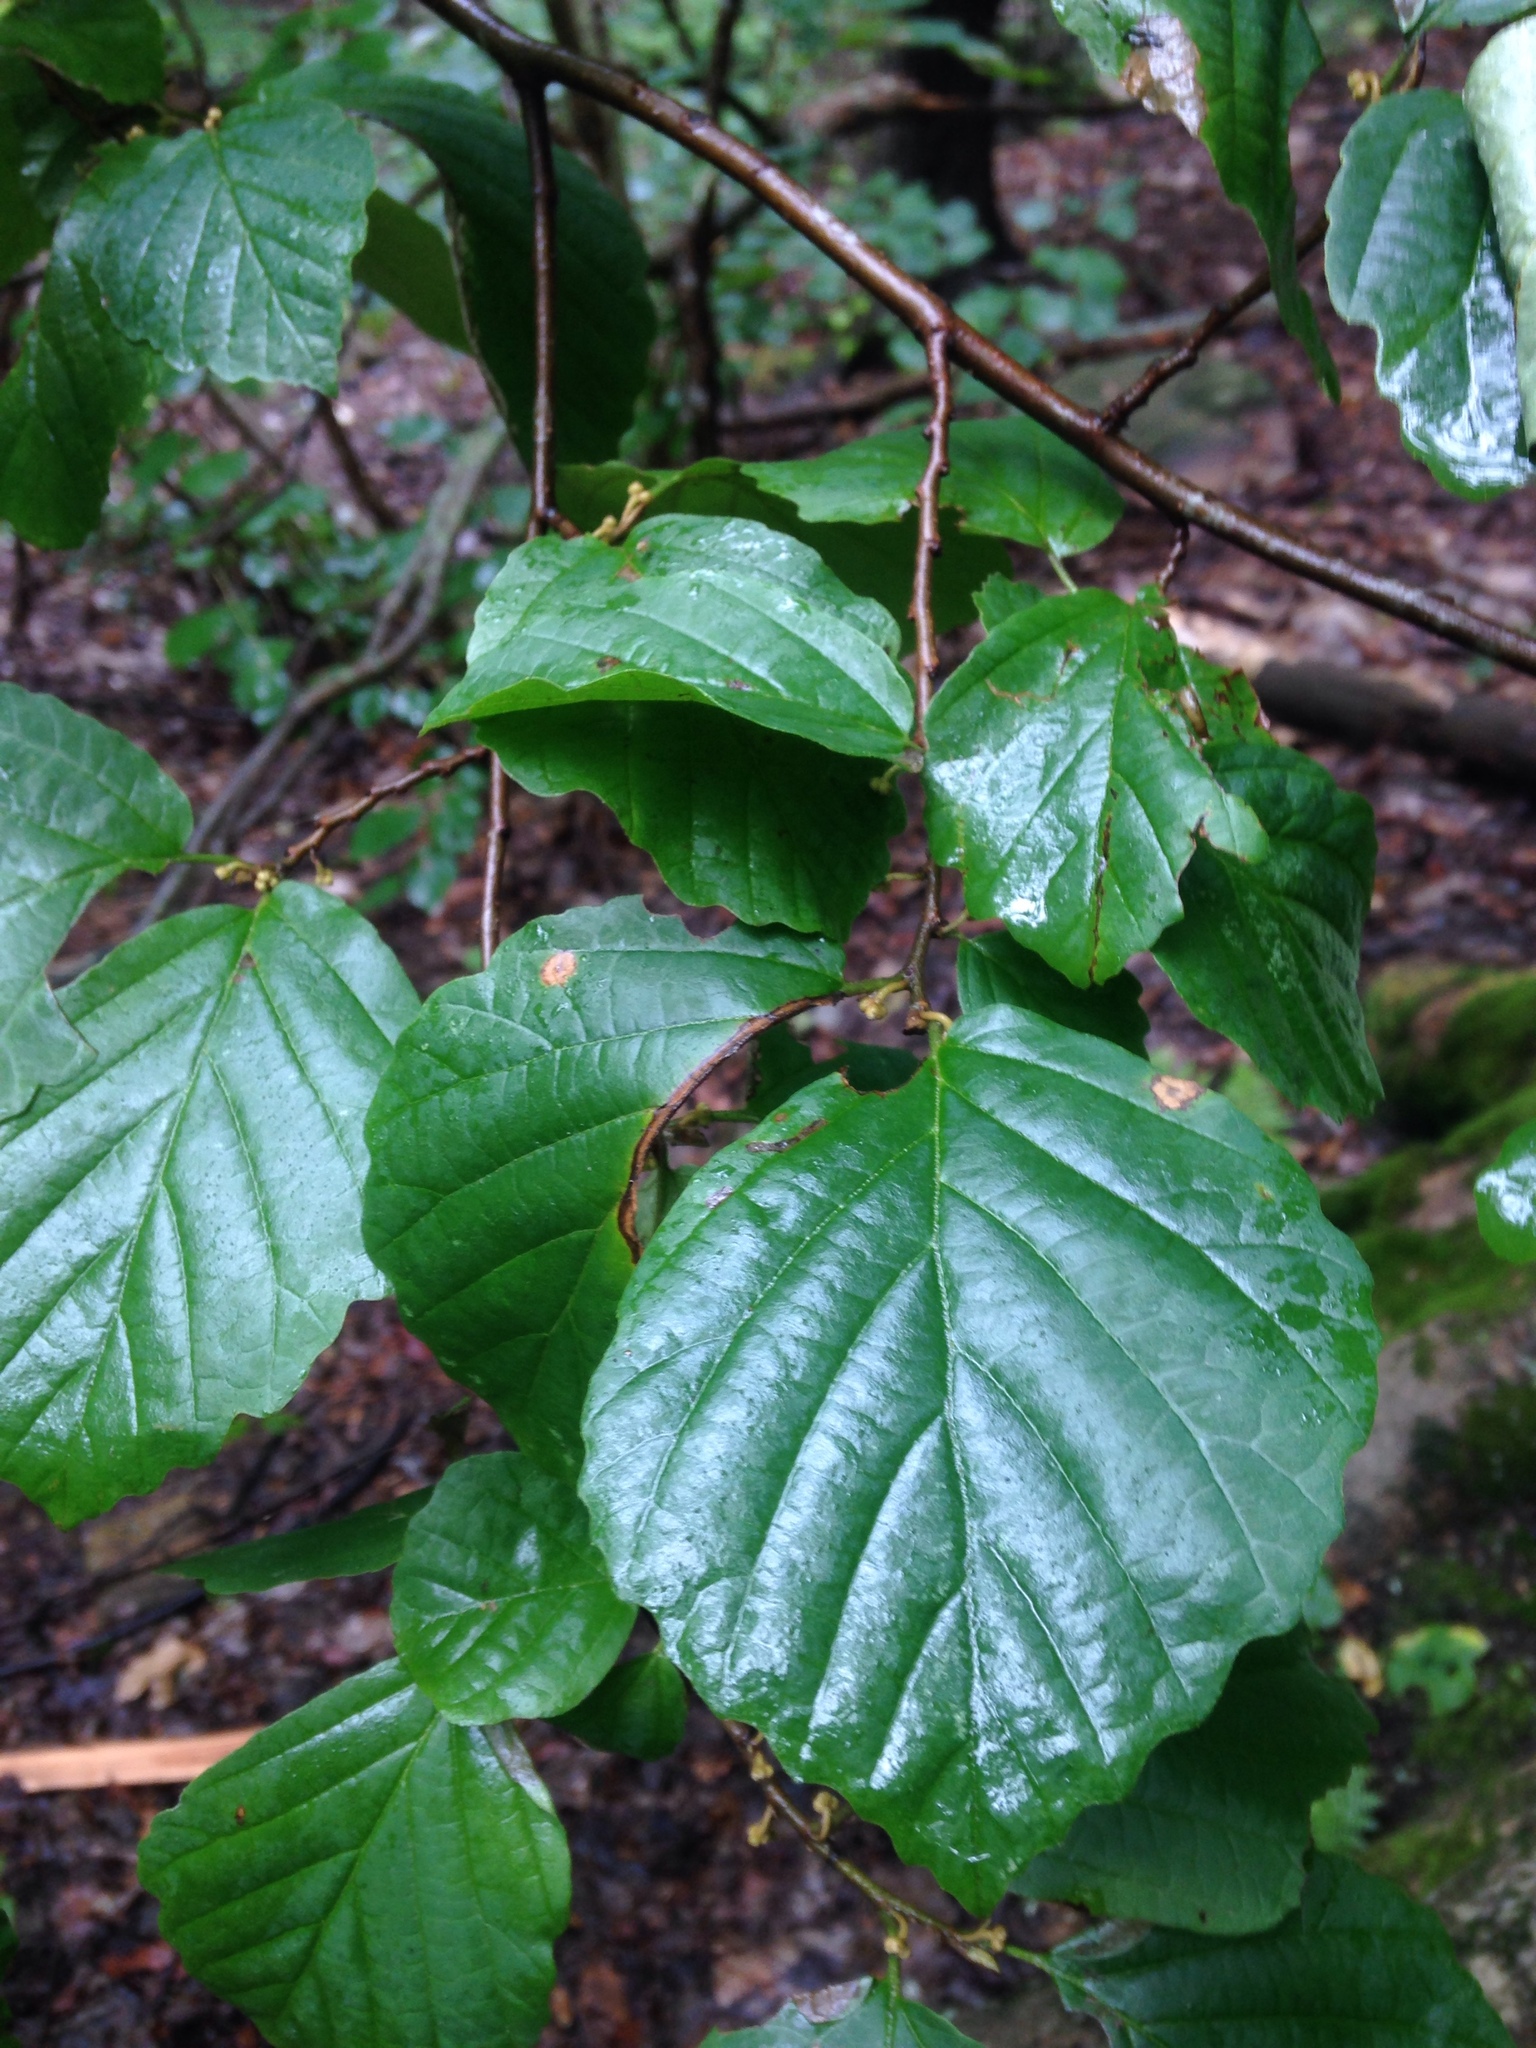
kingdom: Plantae
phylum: Tracheophyta
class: Magnoliopsida
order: Saxifragales
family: Hamamelidaceae
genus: Hamamelis
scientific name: Hamamelis virginiana
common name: Witch-hazel
